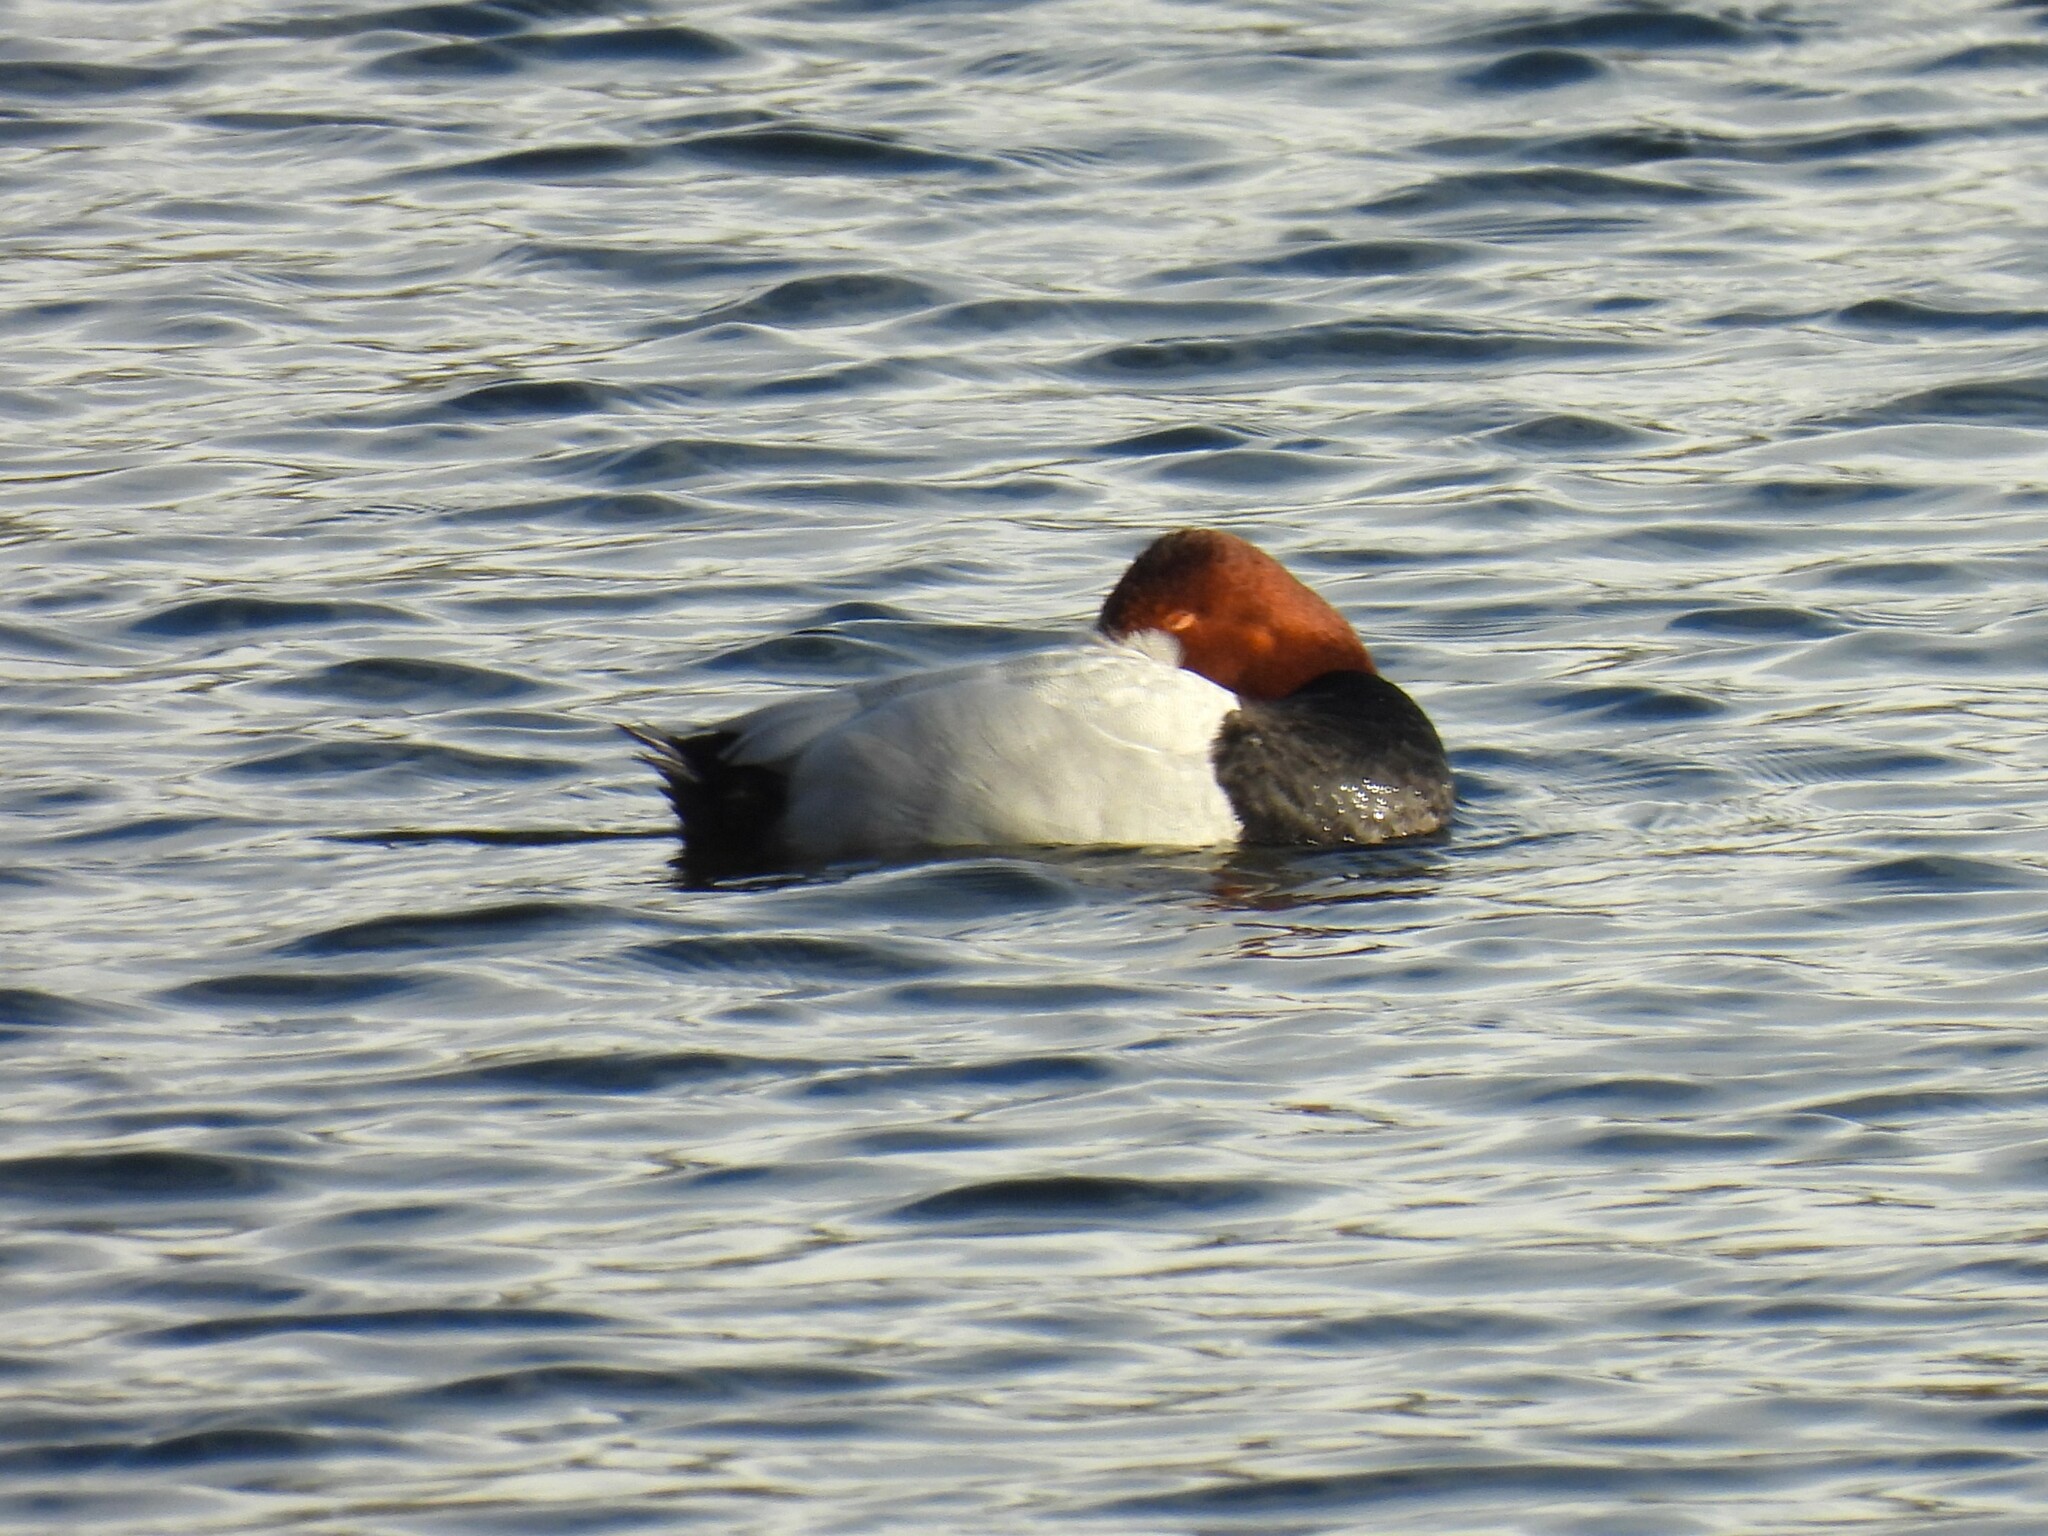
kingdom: Animalia
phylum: Chordata
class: Aves
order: Anseriformes
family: Anatidae
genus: Aythya
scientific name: Aythya ferina
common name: Common pochard
